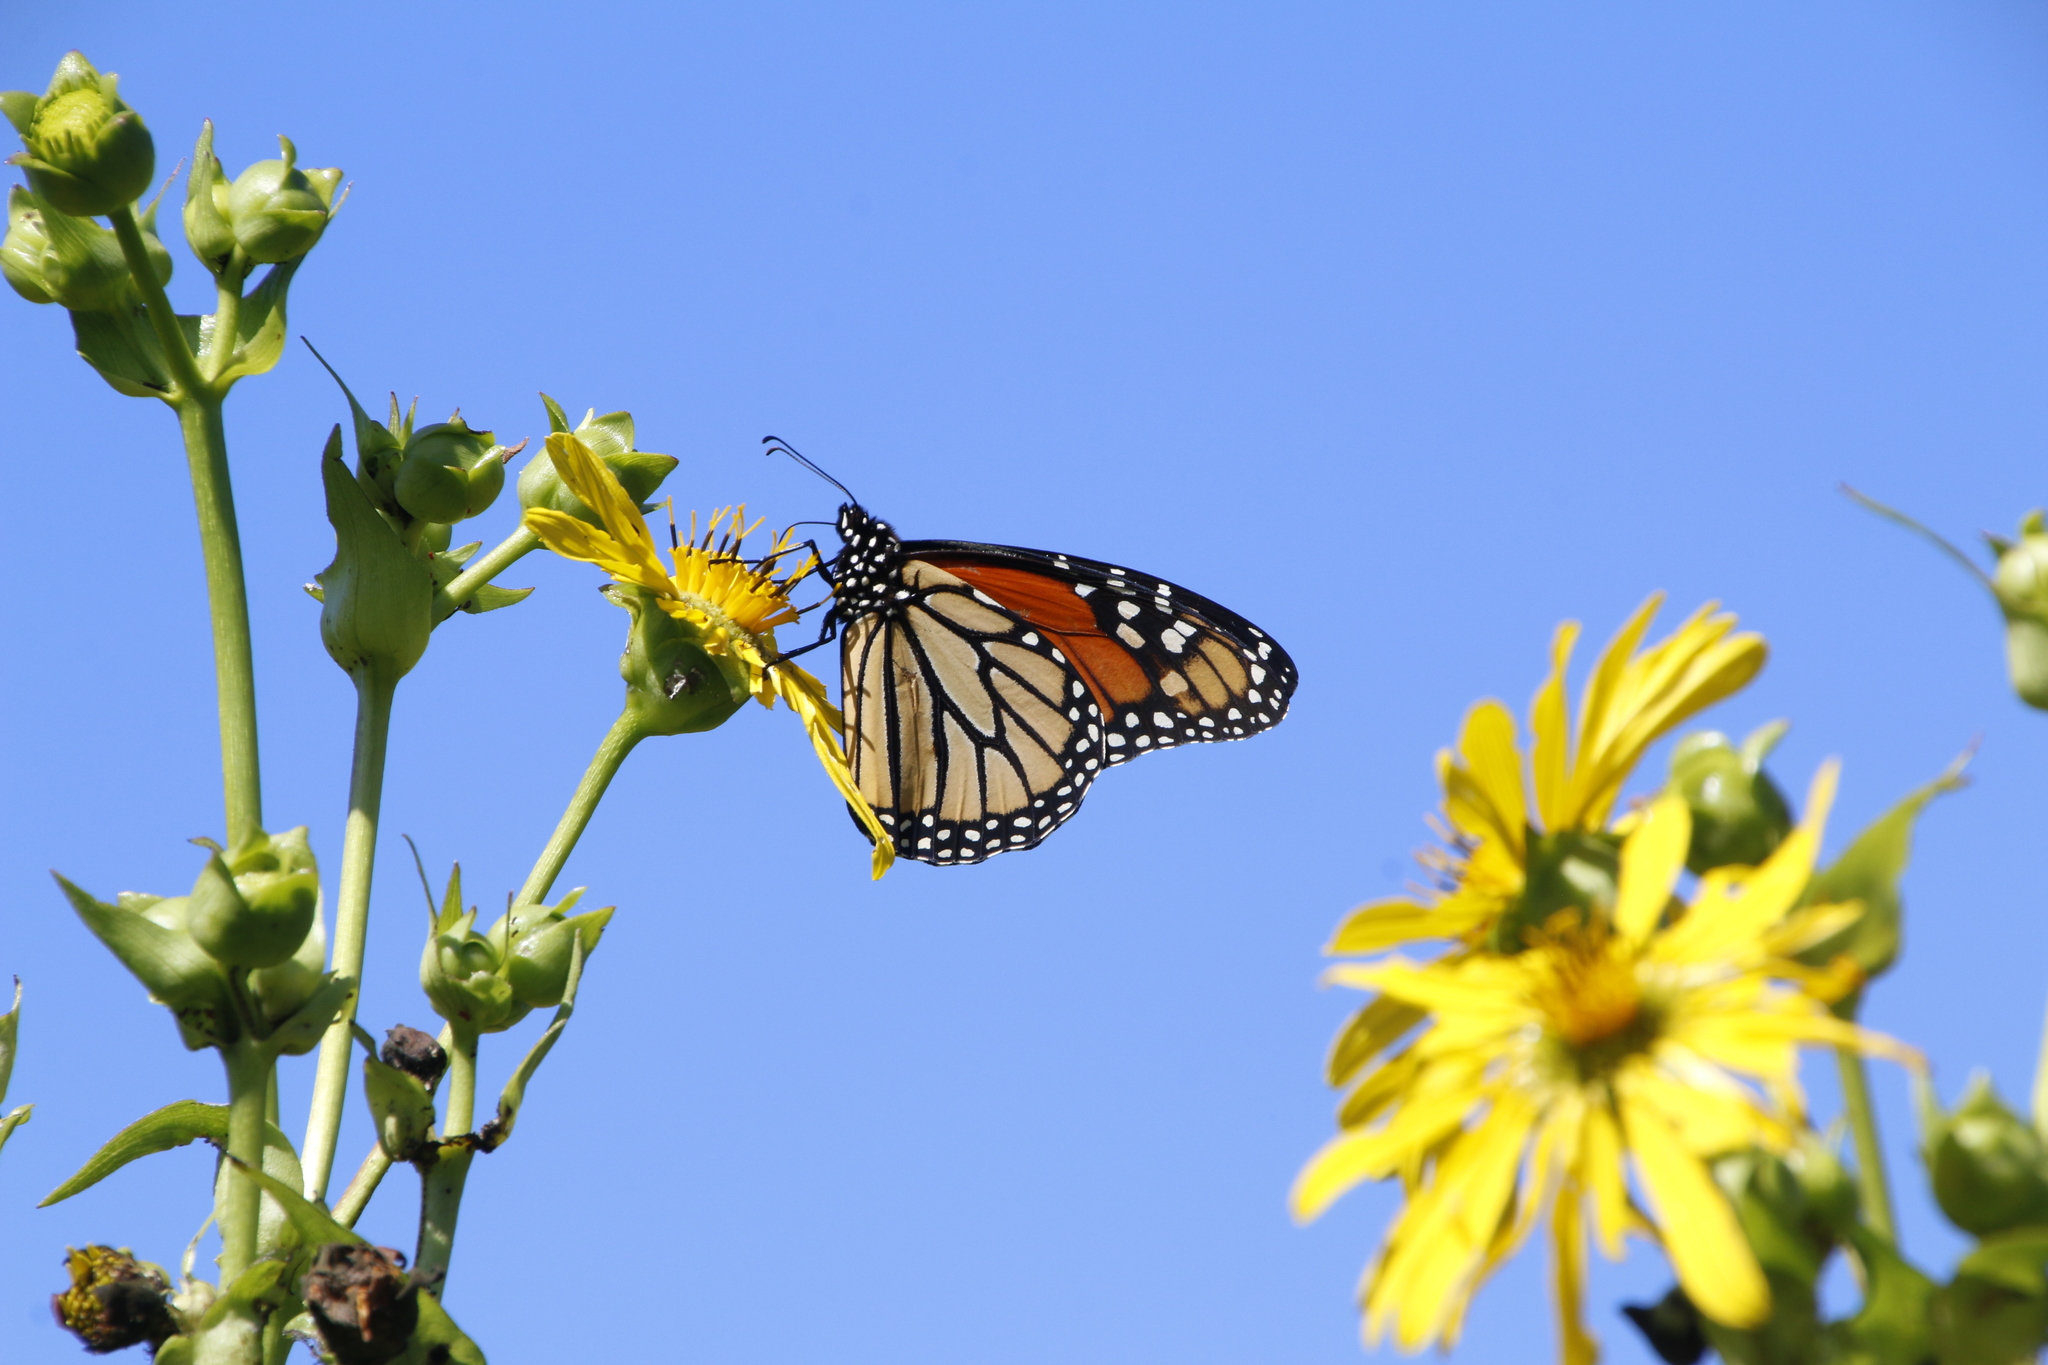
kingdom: Animalia
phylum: Arthropoda
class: Insecta
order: Lepidoptera
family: Nymphalidae
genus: Danaus
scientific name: Danaus plexippus
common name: Monarch
